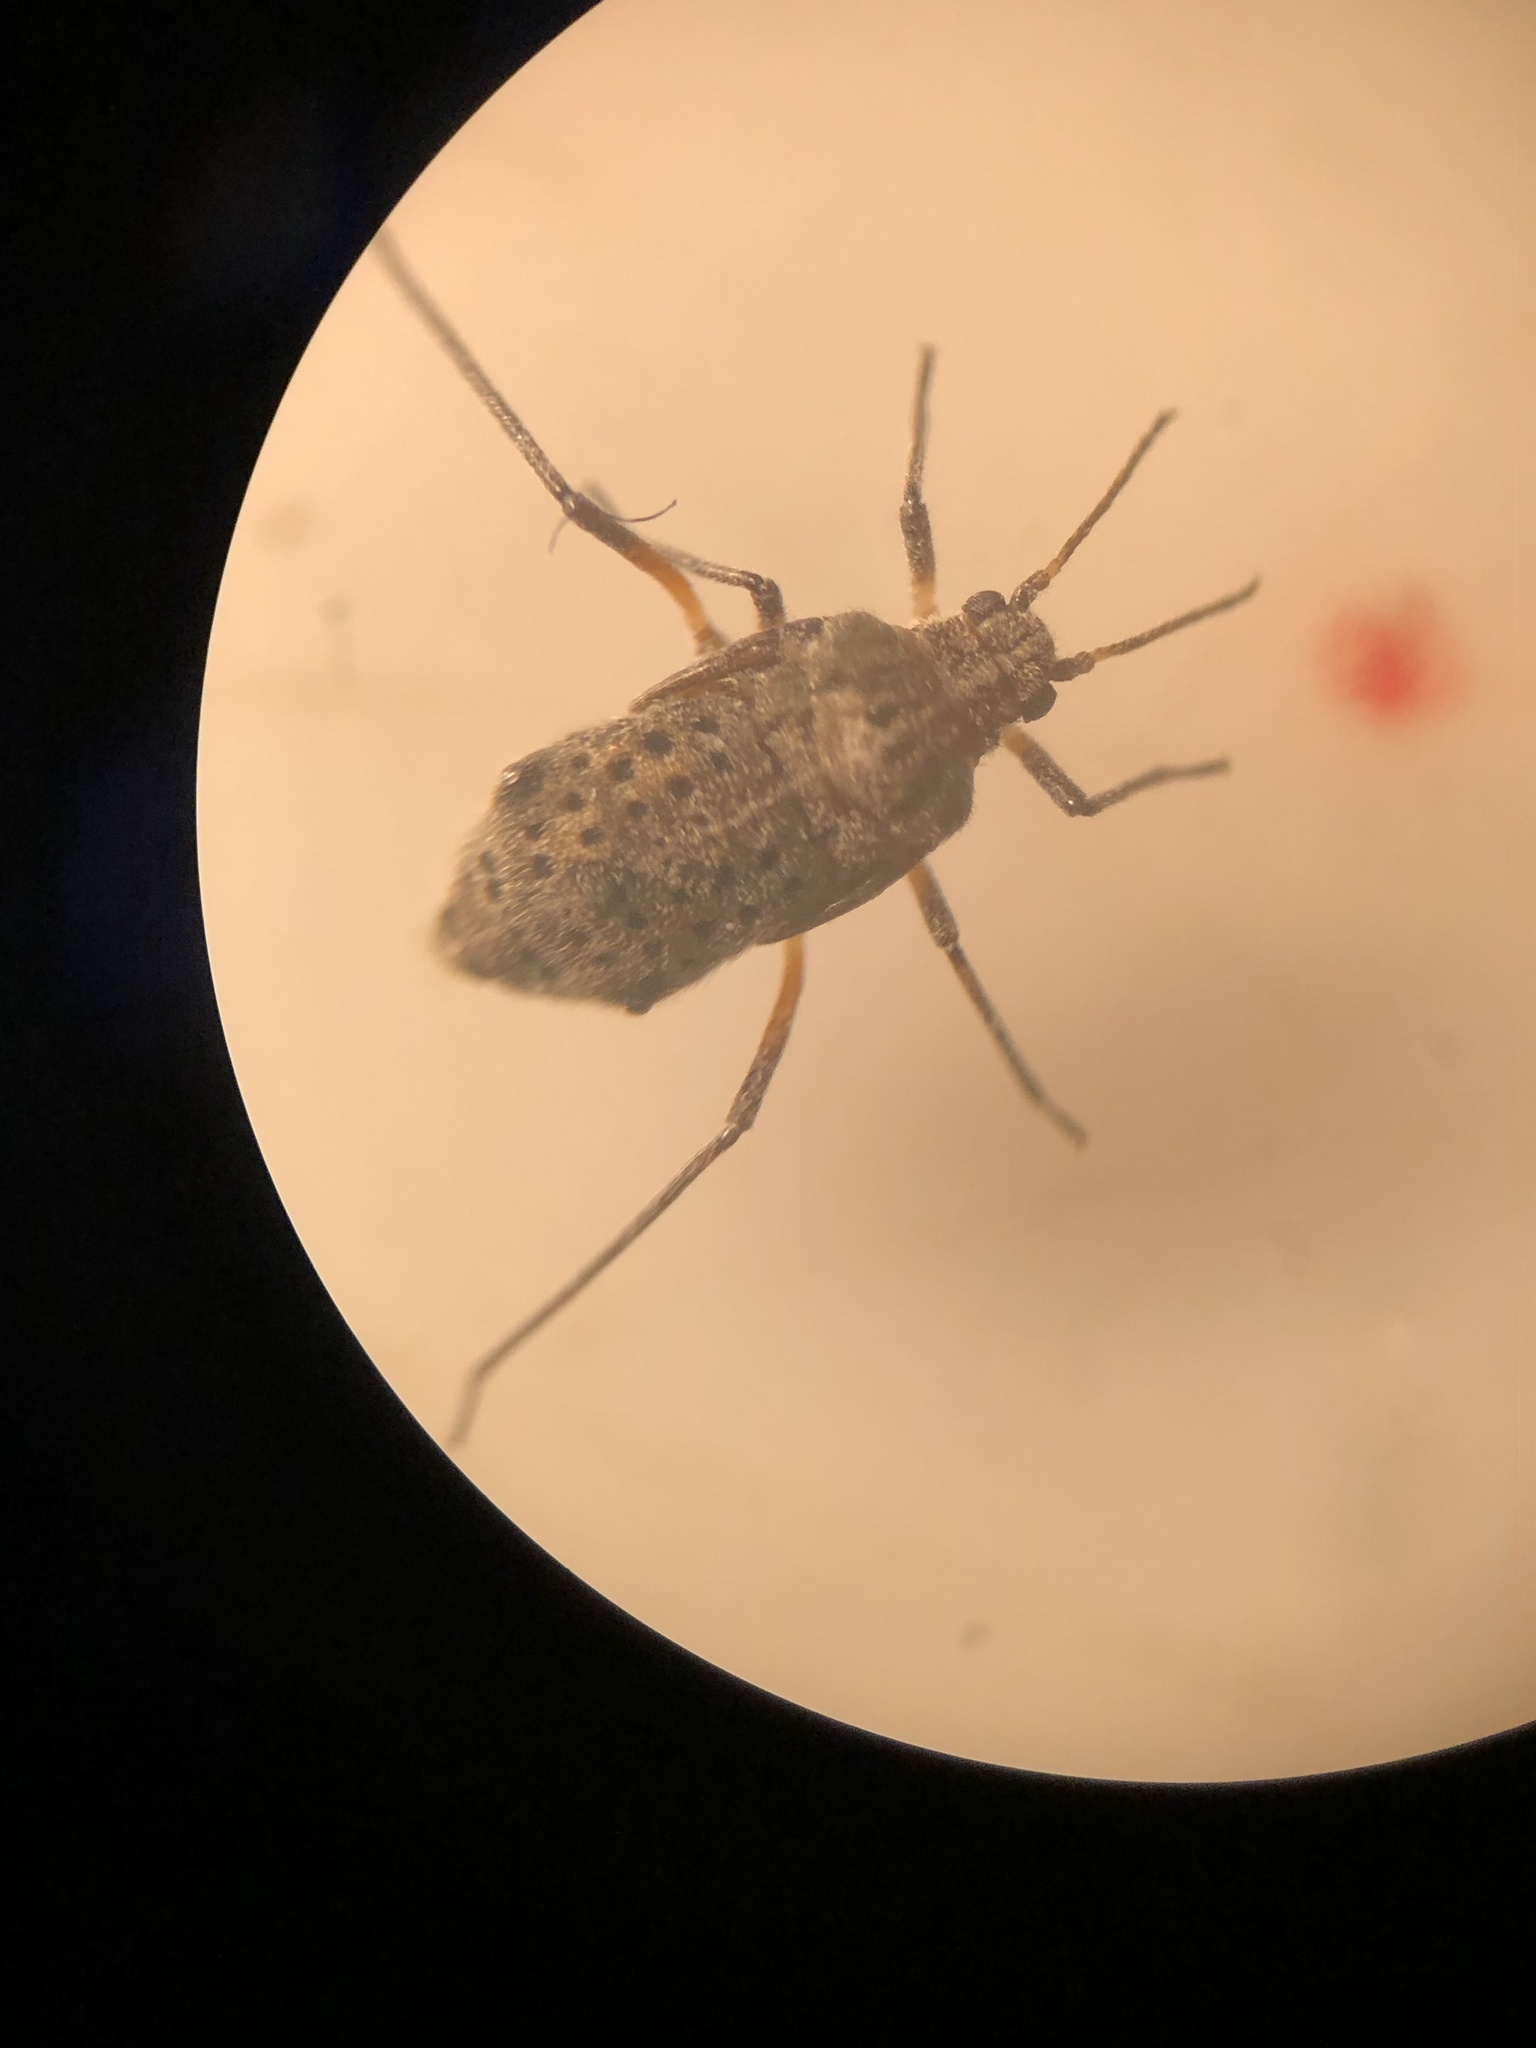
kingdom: Animalia
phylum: Arthropoda
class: Insecta
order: Hemiptera
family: Aphididae
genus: Tuberolachnus
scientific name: Tuberolachnus salignus
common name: Giant willow aphid
